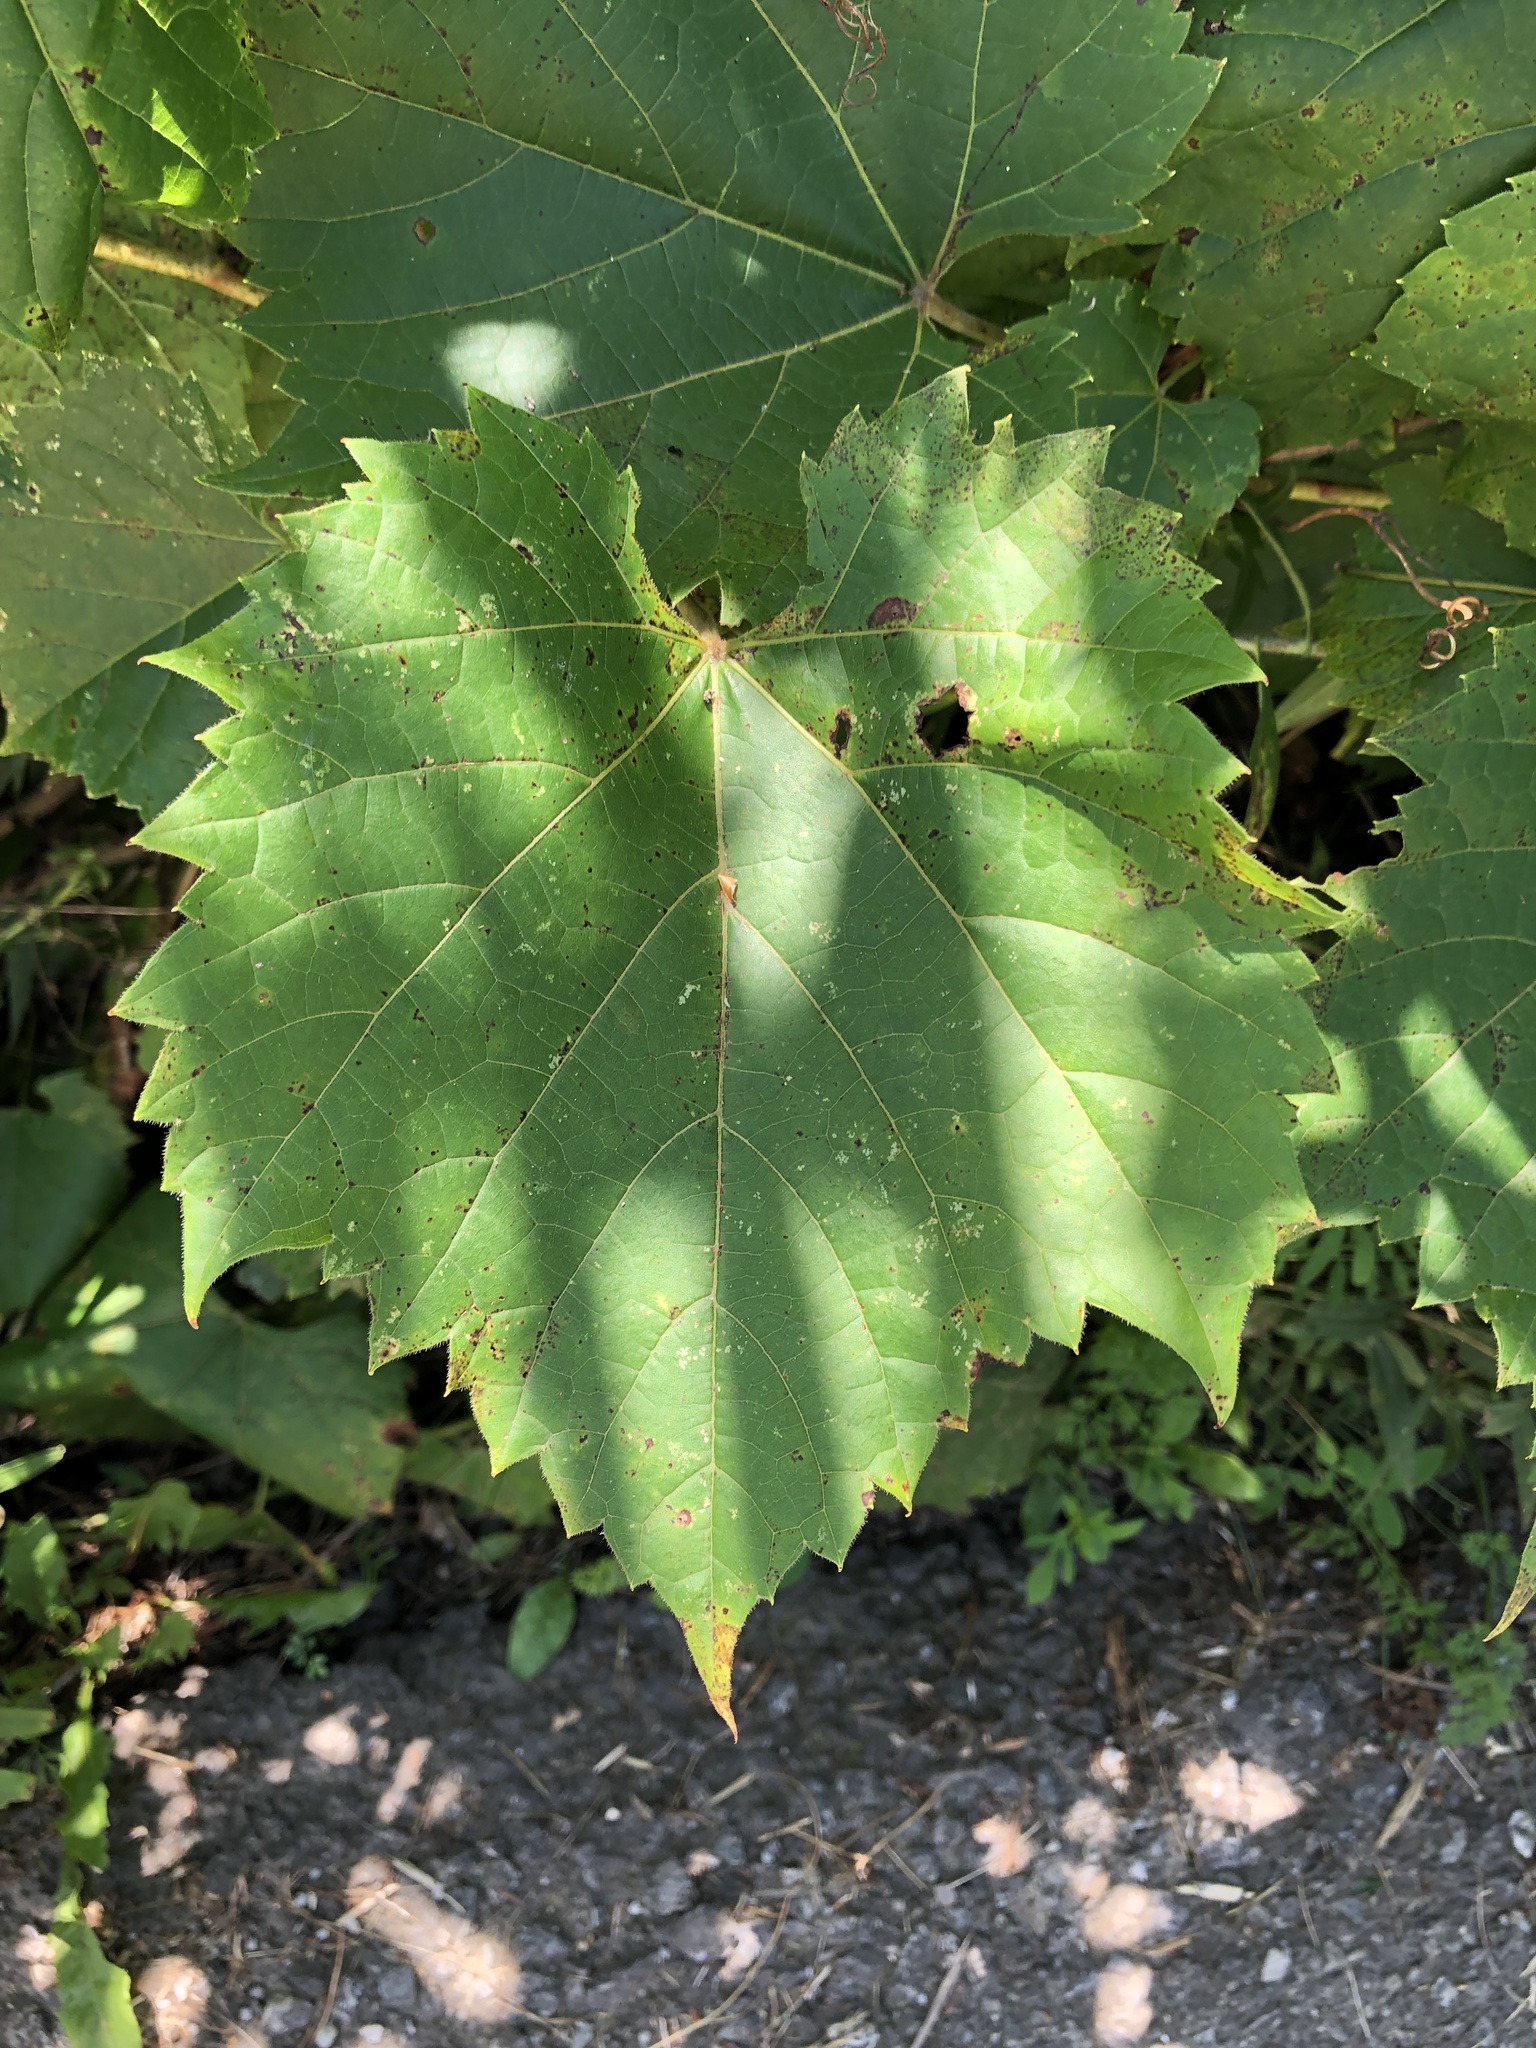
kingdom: Plantae
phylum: Tracheophyta
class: Magnoliopsida
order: Vitales
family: Vitaceae
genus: Vitis
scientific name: Vitis riparia
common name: Frost grape
